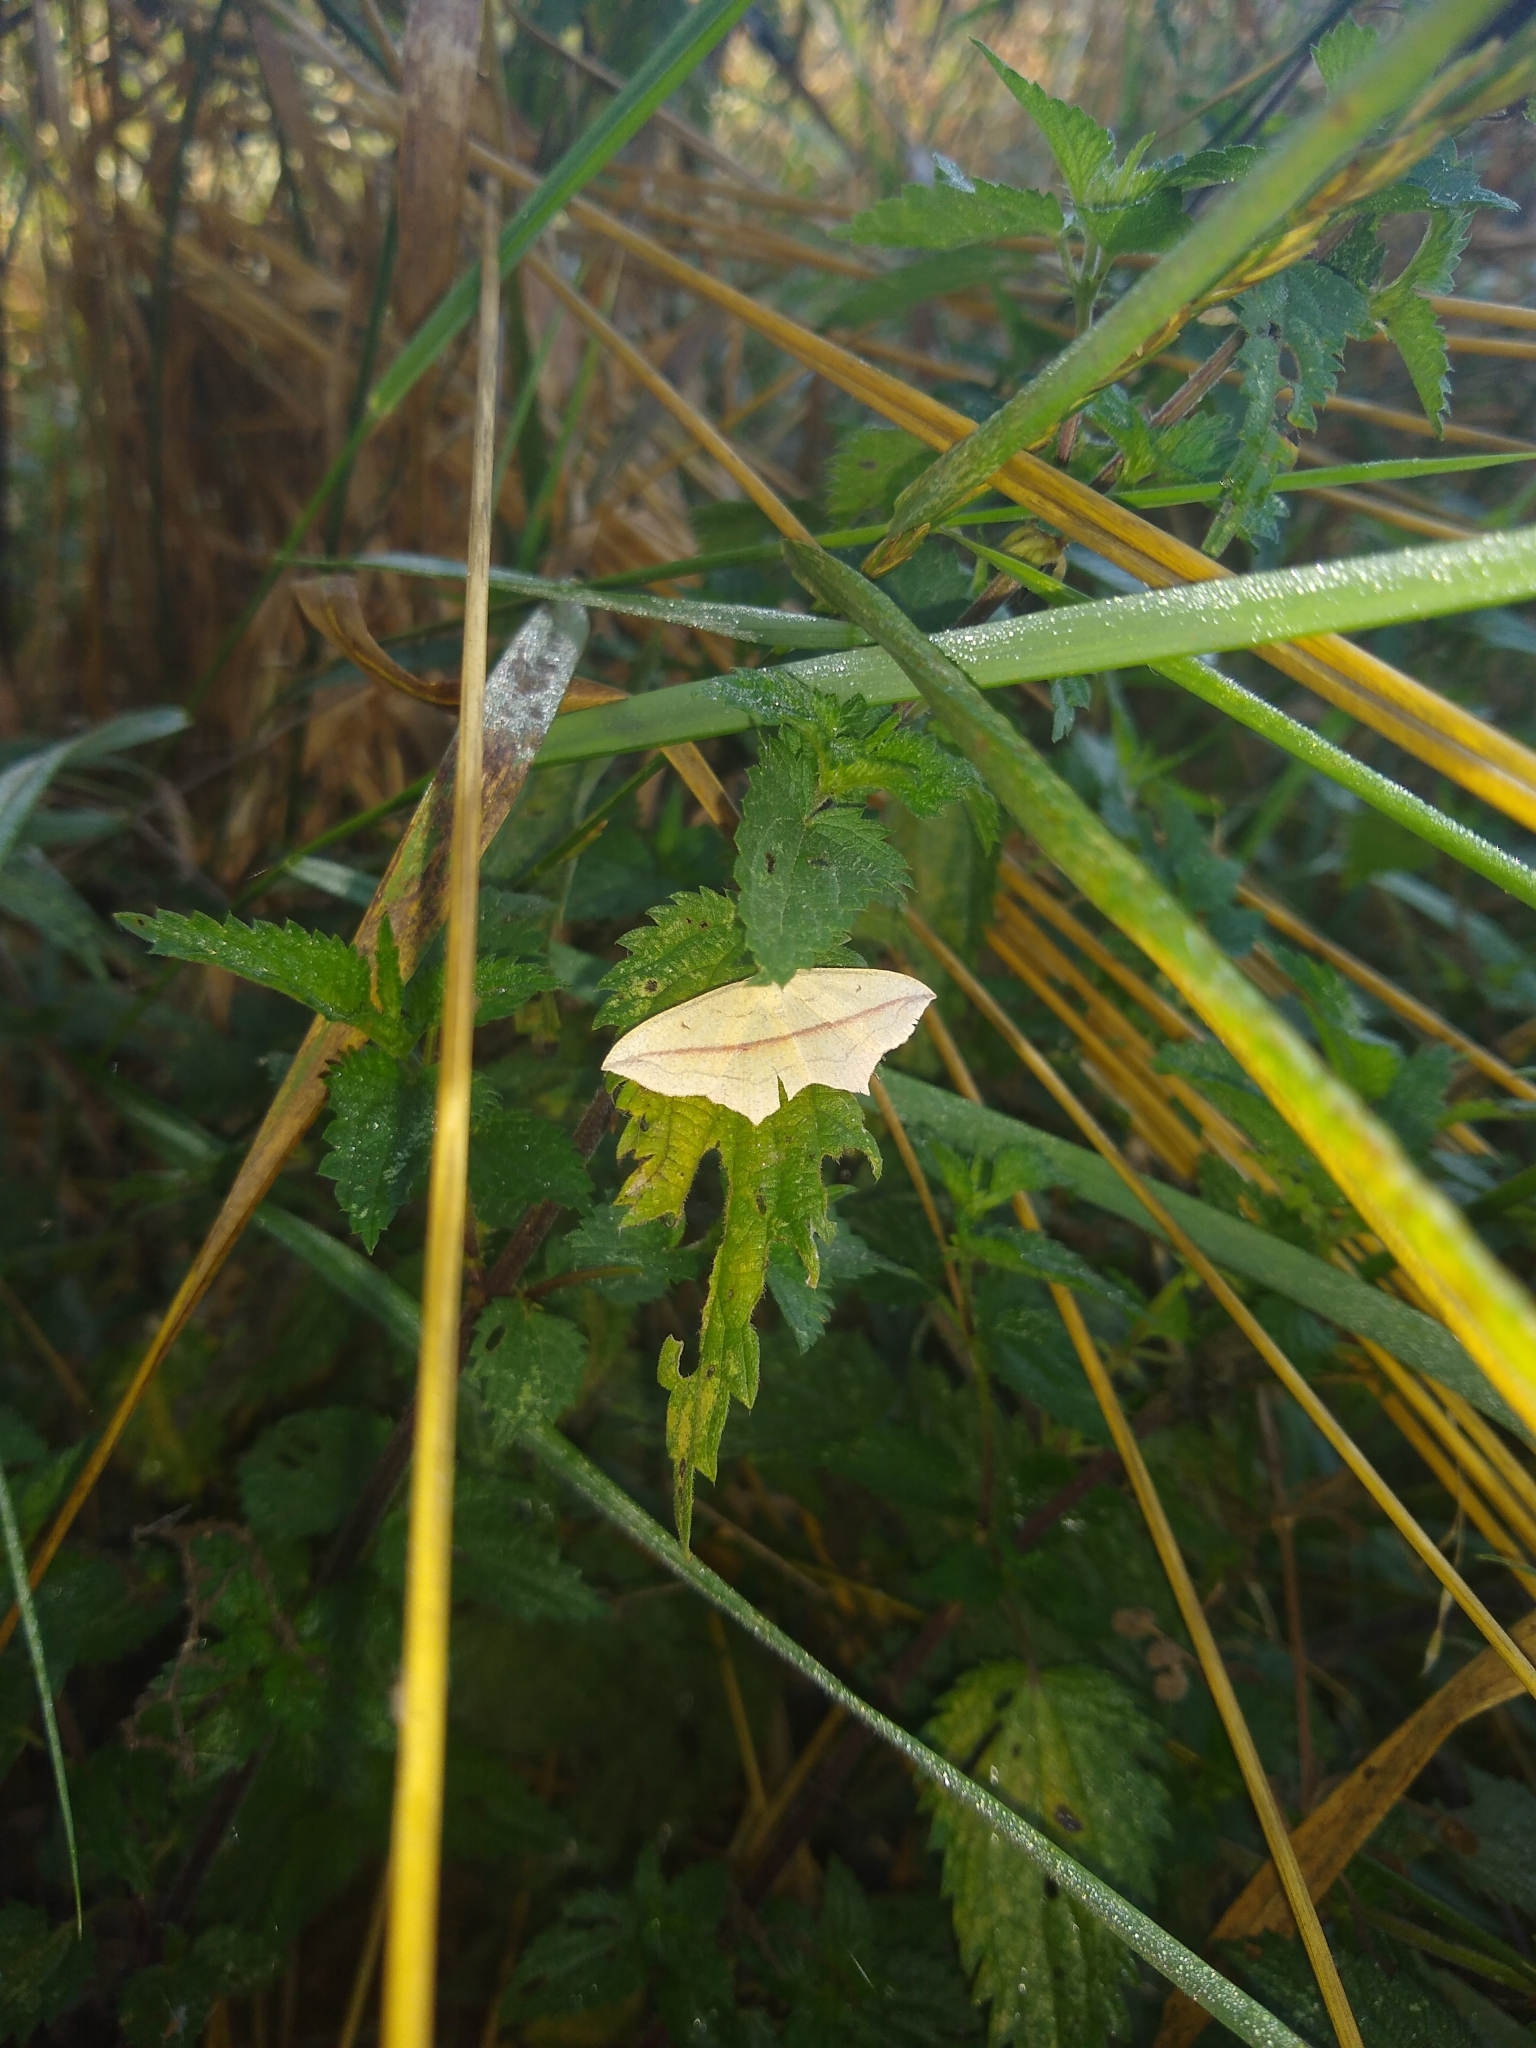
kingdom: Animalia
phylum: Arthropoda
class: Insecta
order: Lepidoptera
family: Geometridae
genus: Timandra
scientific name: Timandra comae
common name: Blood-vein
